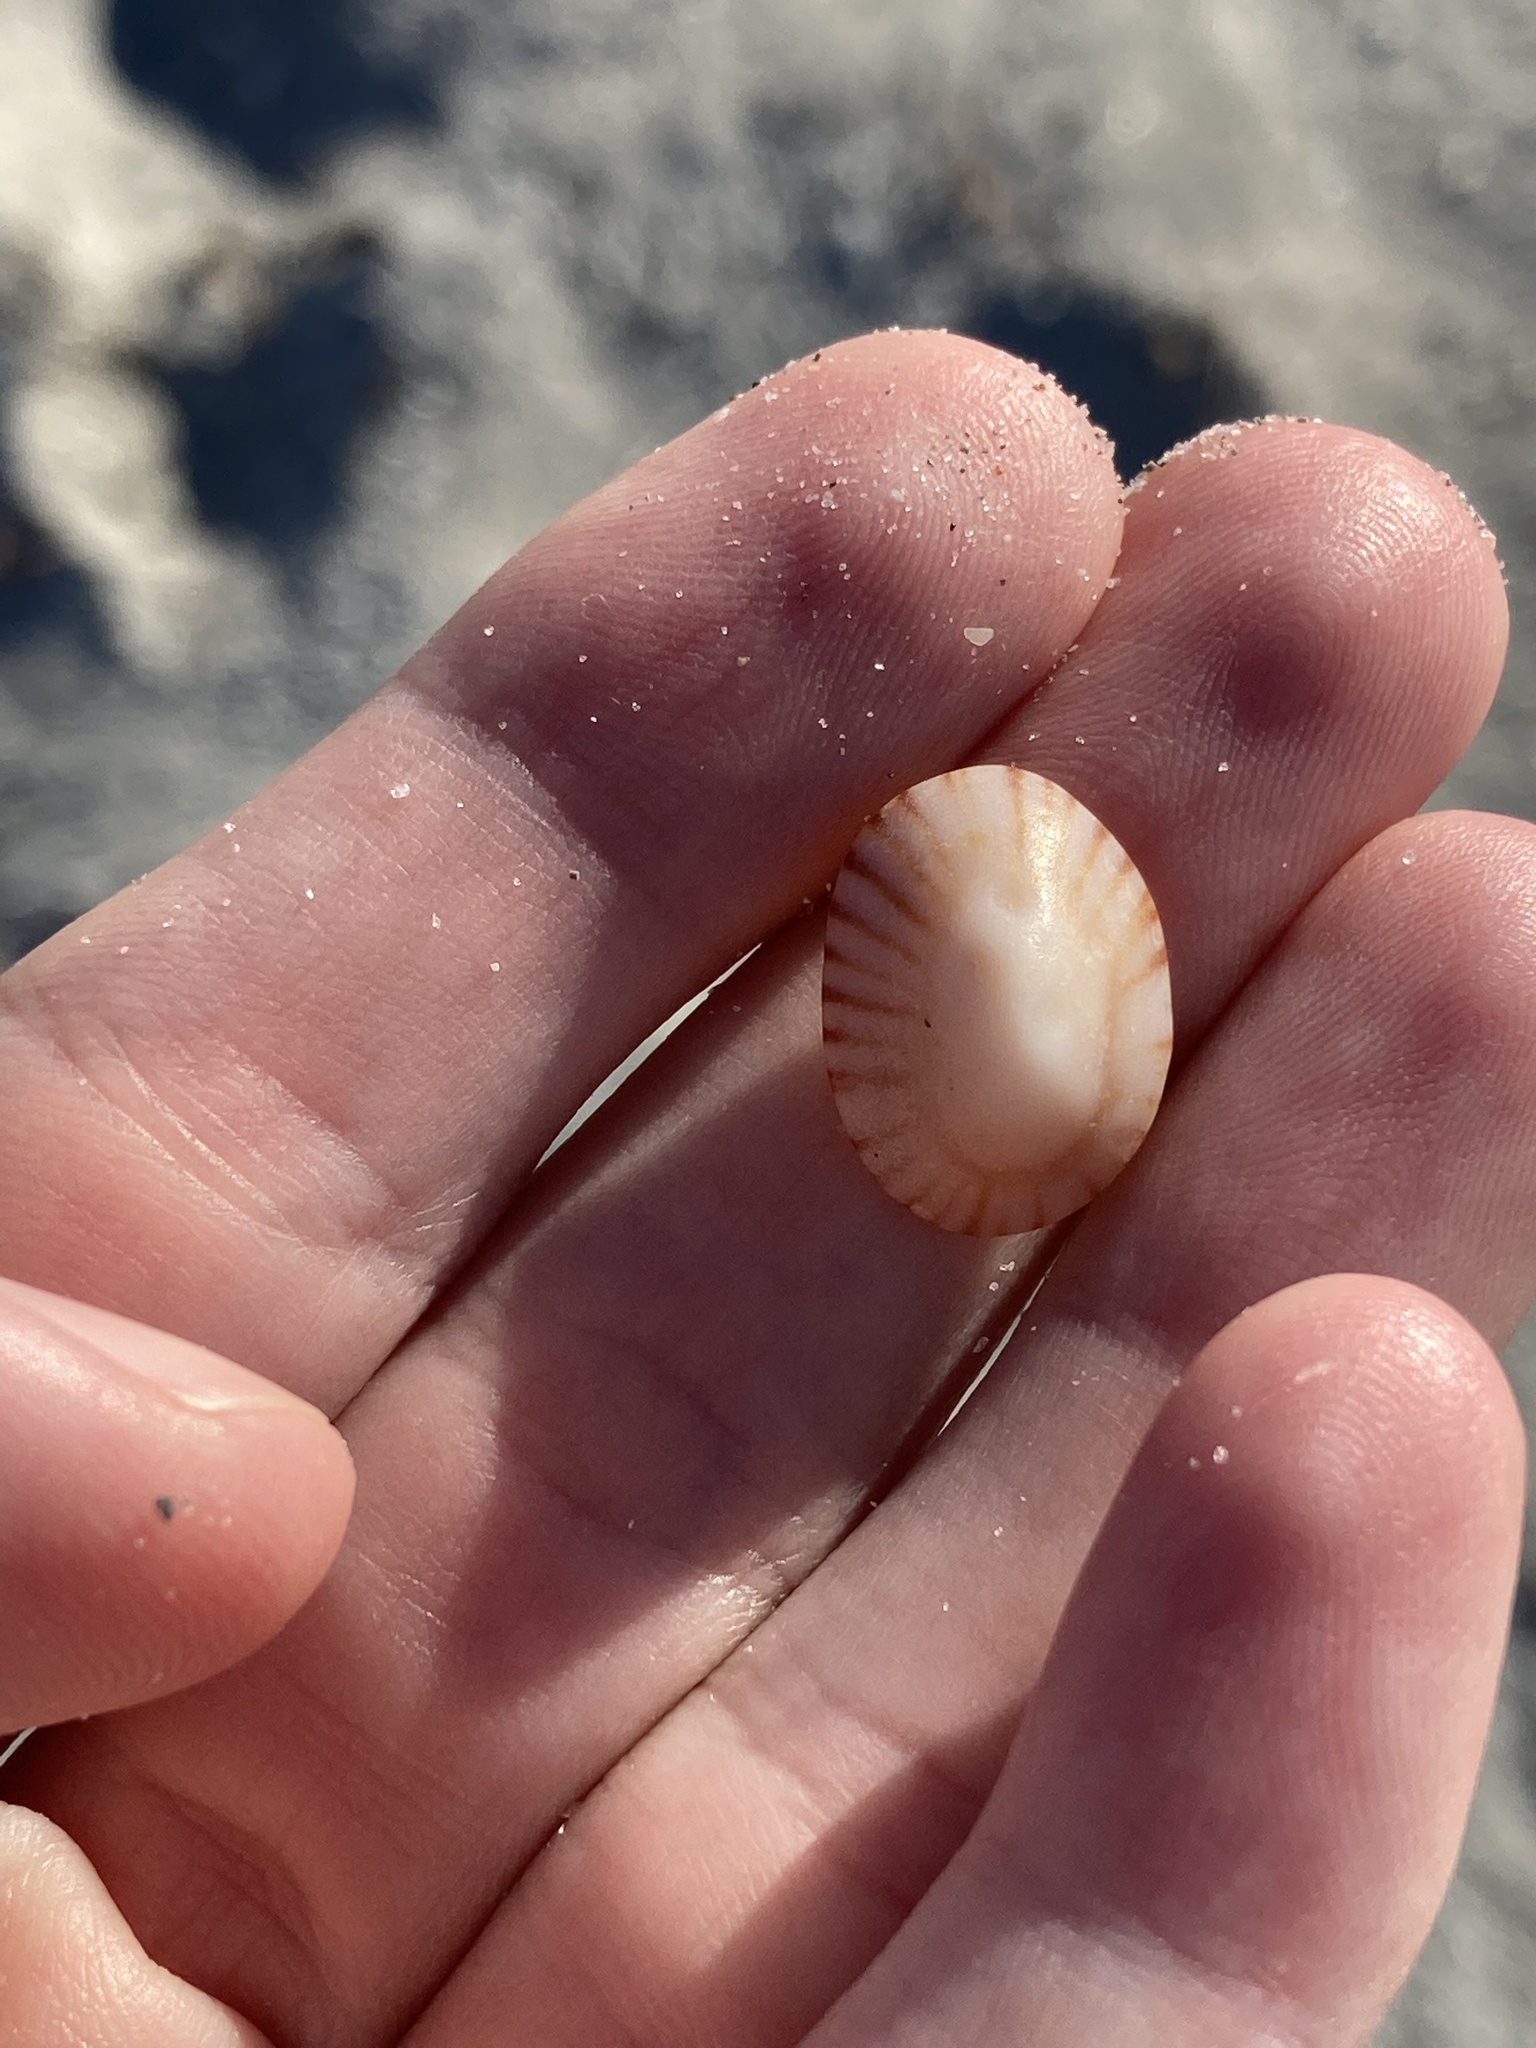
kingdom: Animalia
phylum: Mollusca
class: Gastropoda
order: Siphonariida
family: Siphonariidae
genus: Siphonaria
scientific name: Siphonaria naufragum
